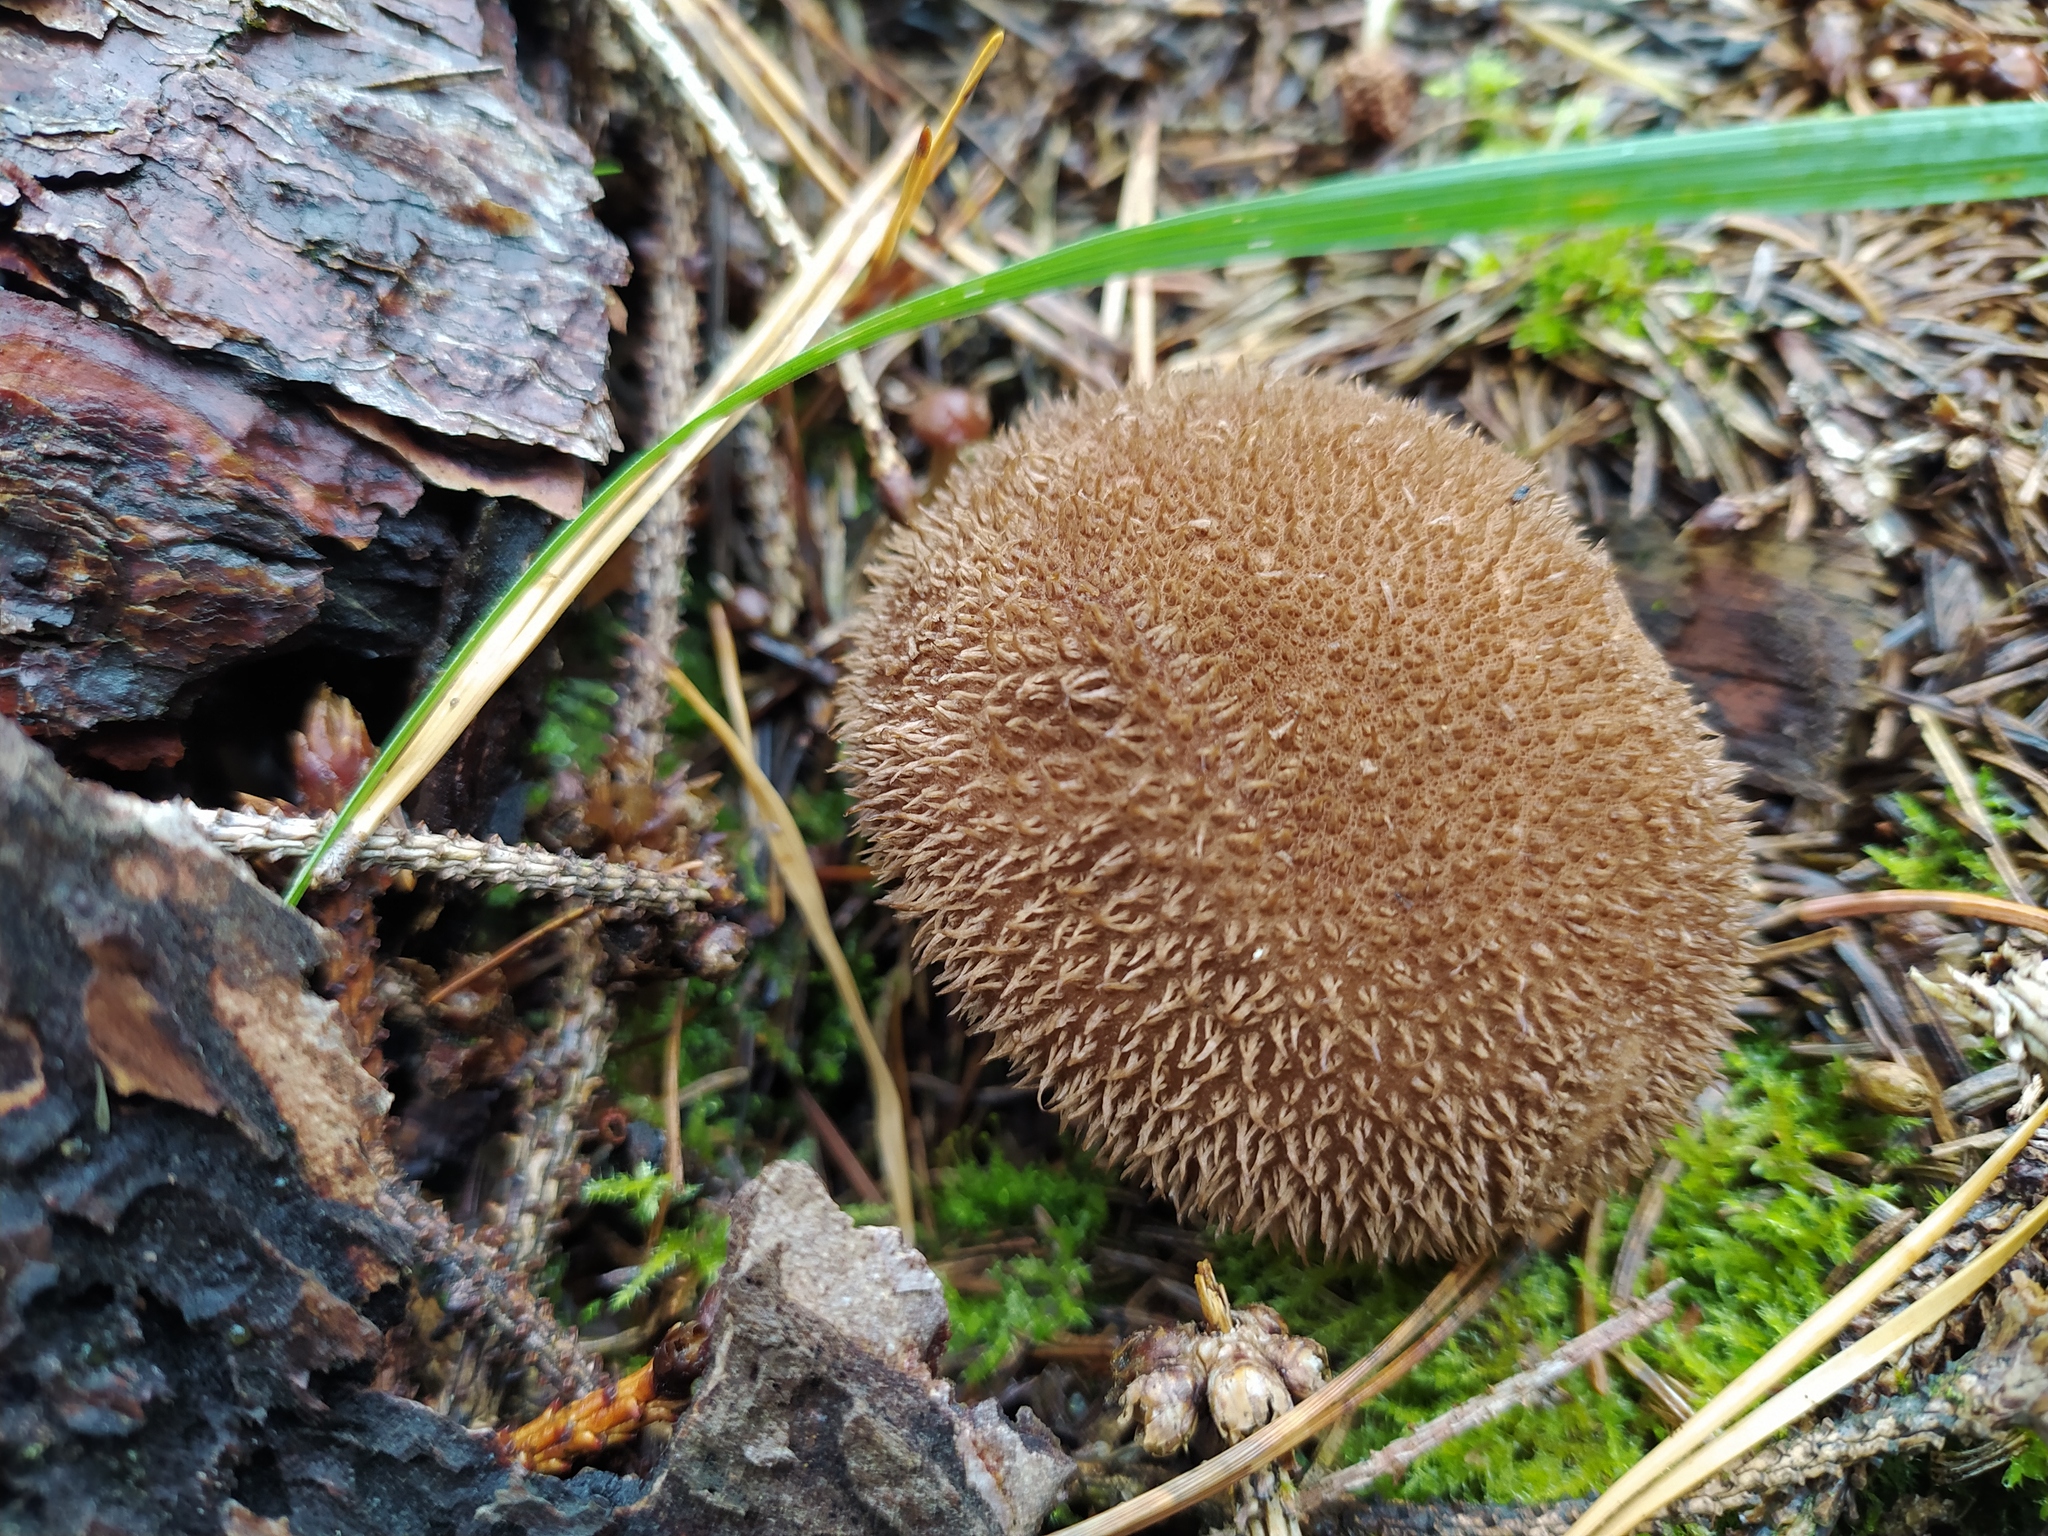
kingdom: Fungi
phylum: Basidiomycota
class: Agaricomycetes
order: Agaricales
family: Lycoperdaceae
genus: Lycoperdon
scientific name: Lycoperdon echinatum
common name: Hedgehog puffball
